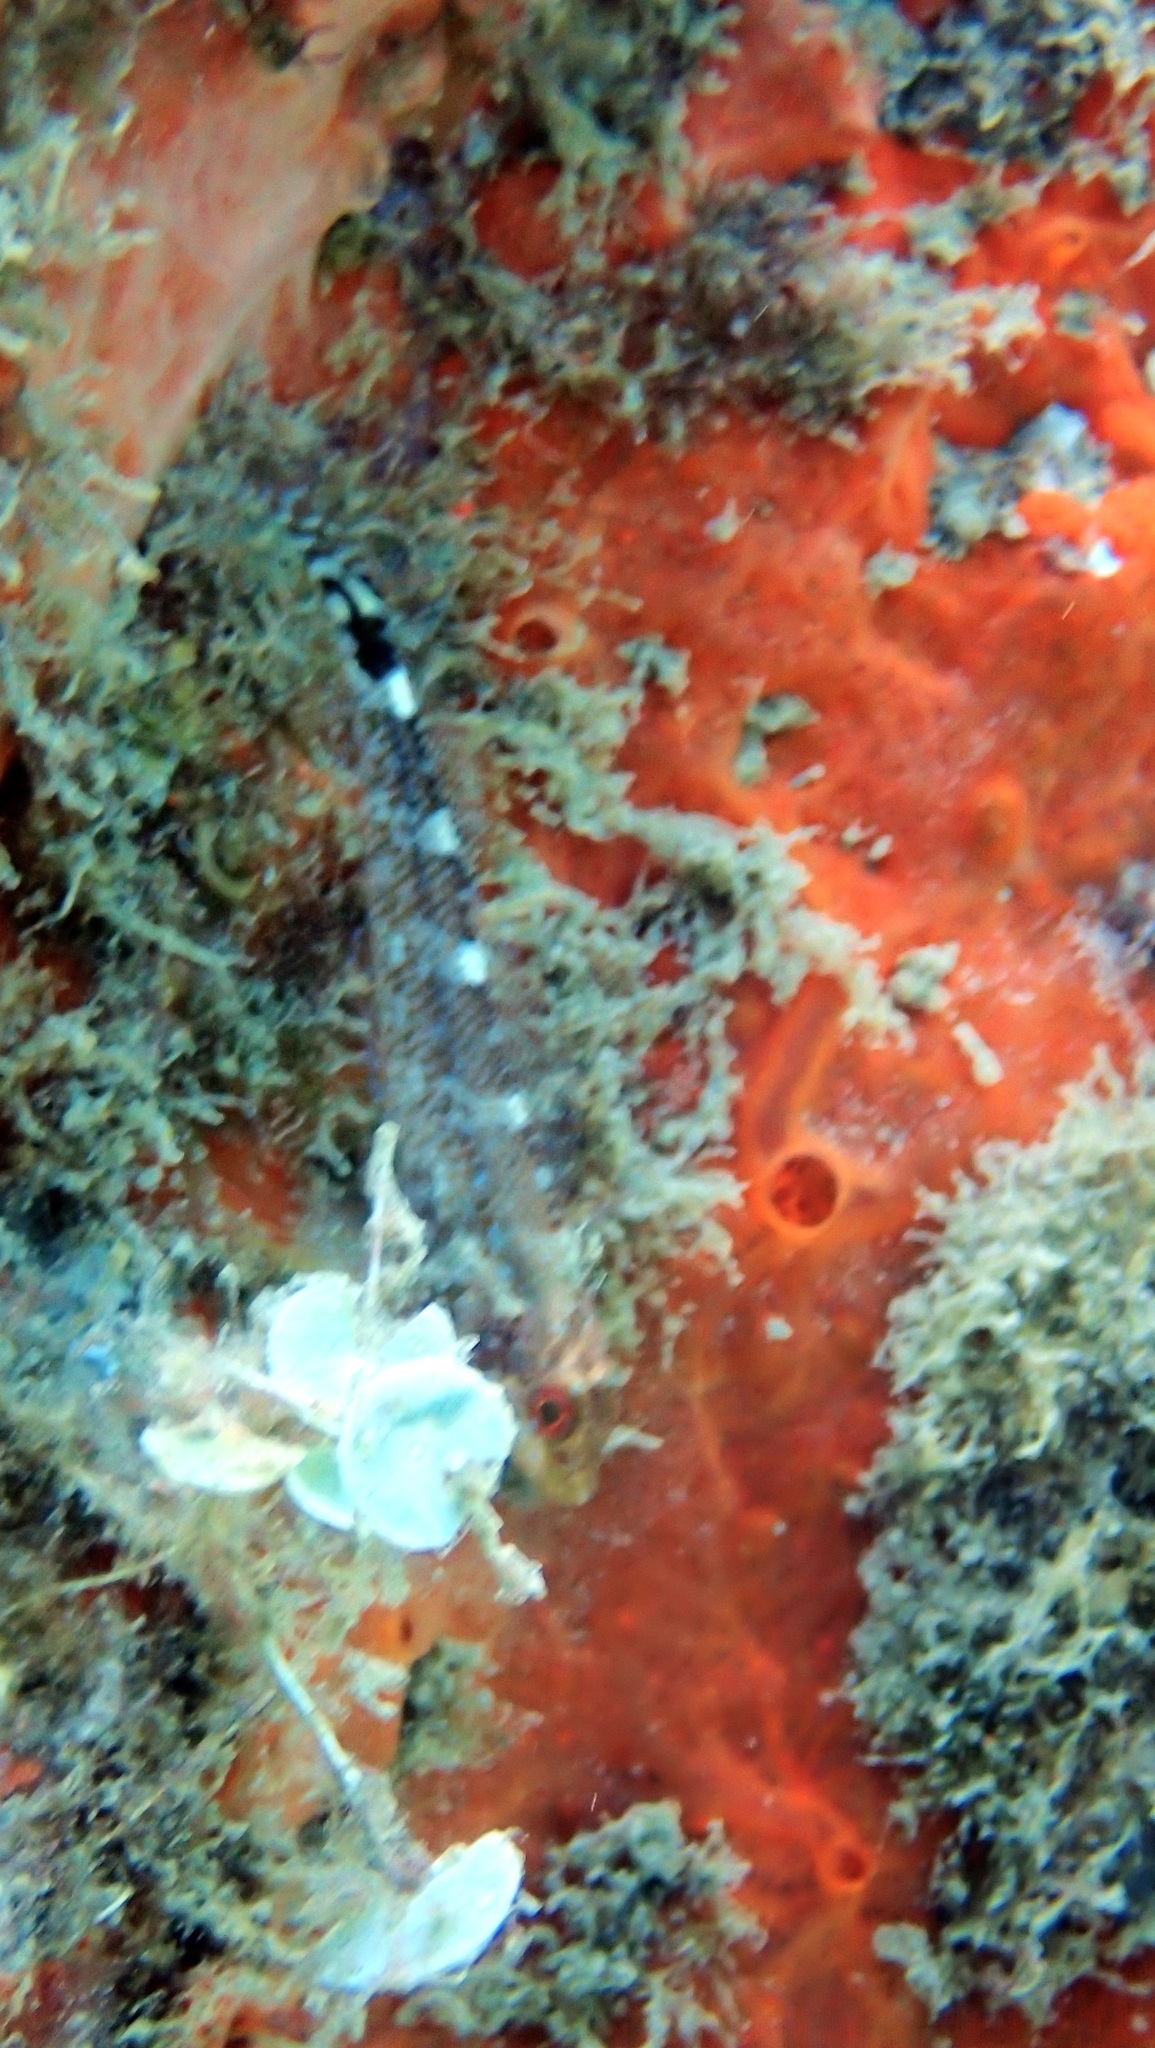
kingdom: Animalia
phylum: Chordata
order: Perciformes
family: Tripterygiidae
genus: Tripterygion
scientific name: Tripterygion delaisi
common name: Black-face blenny
